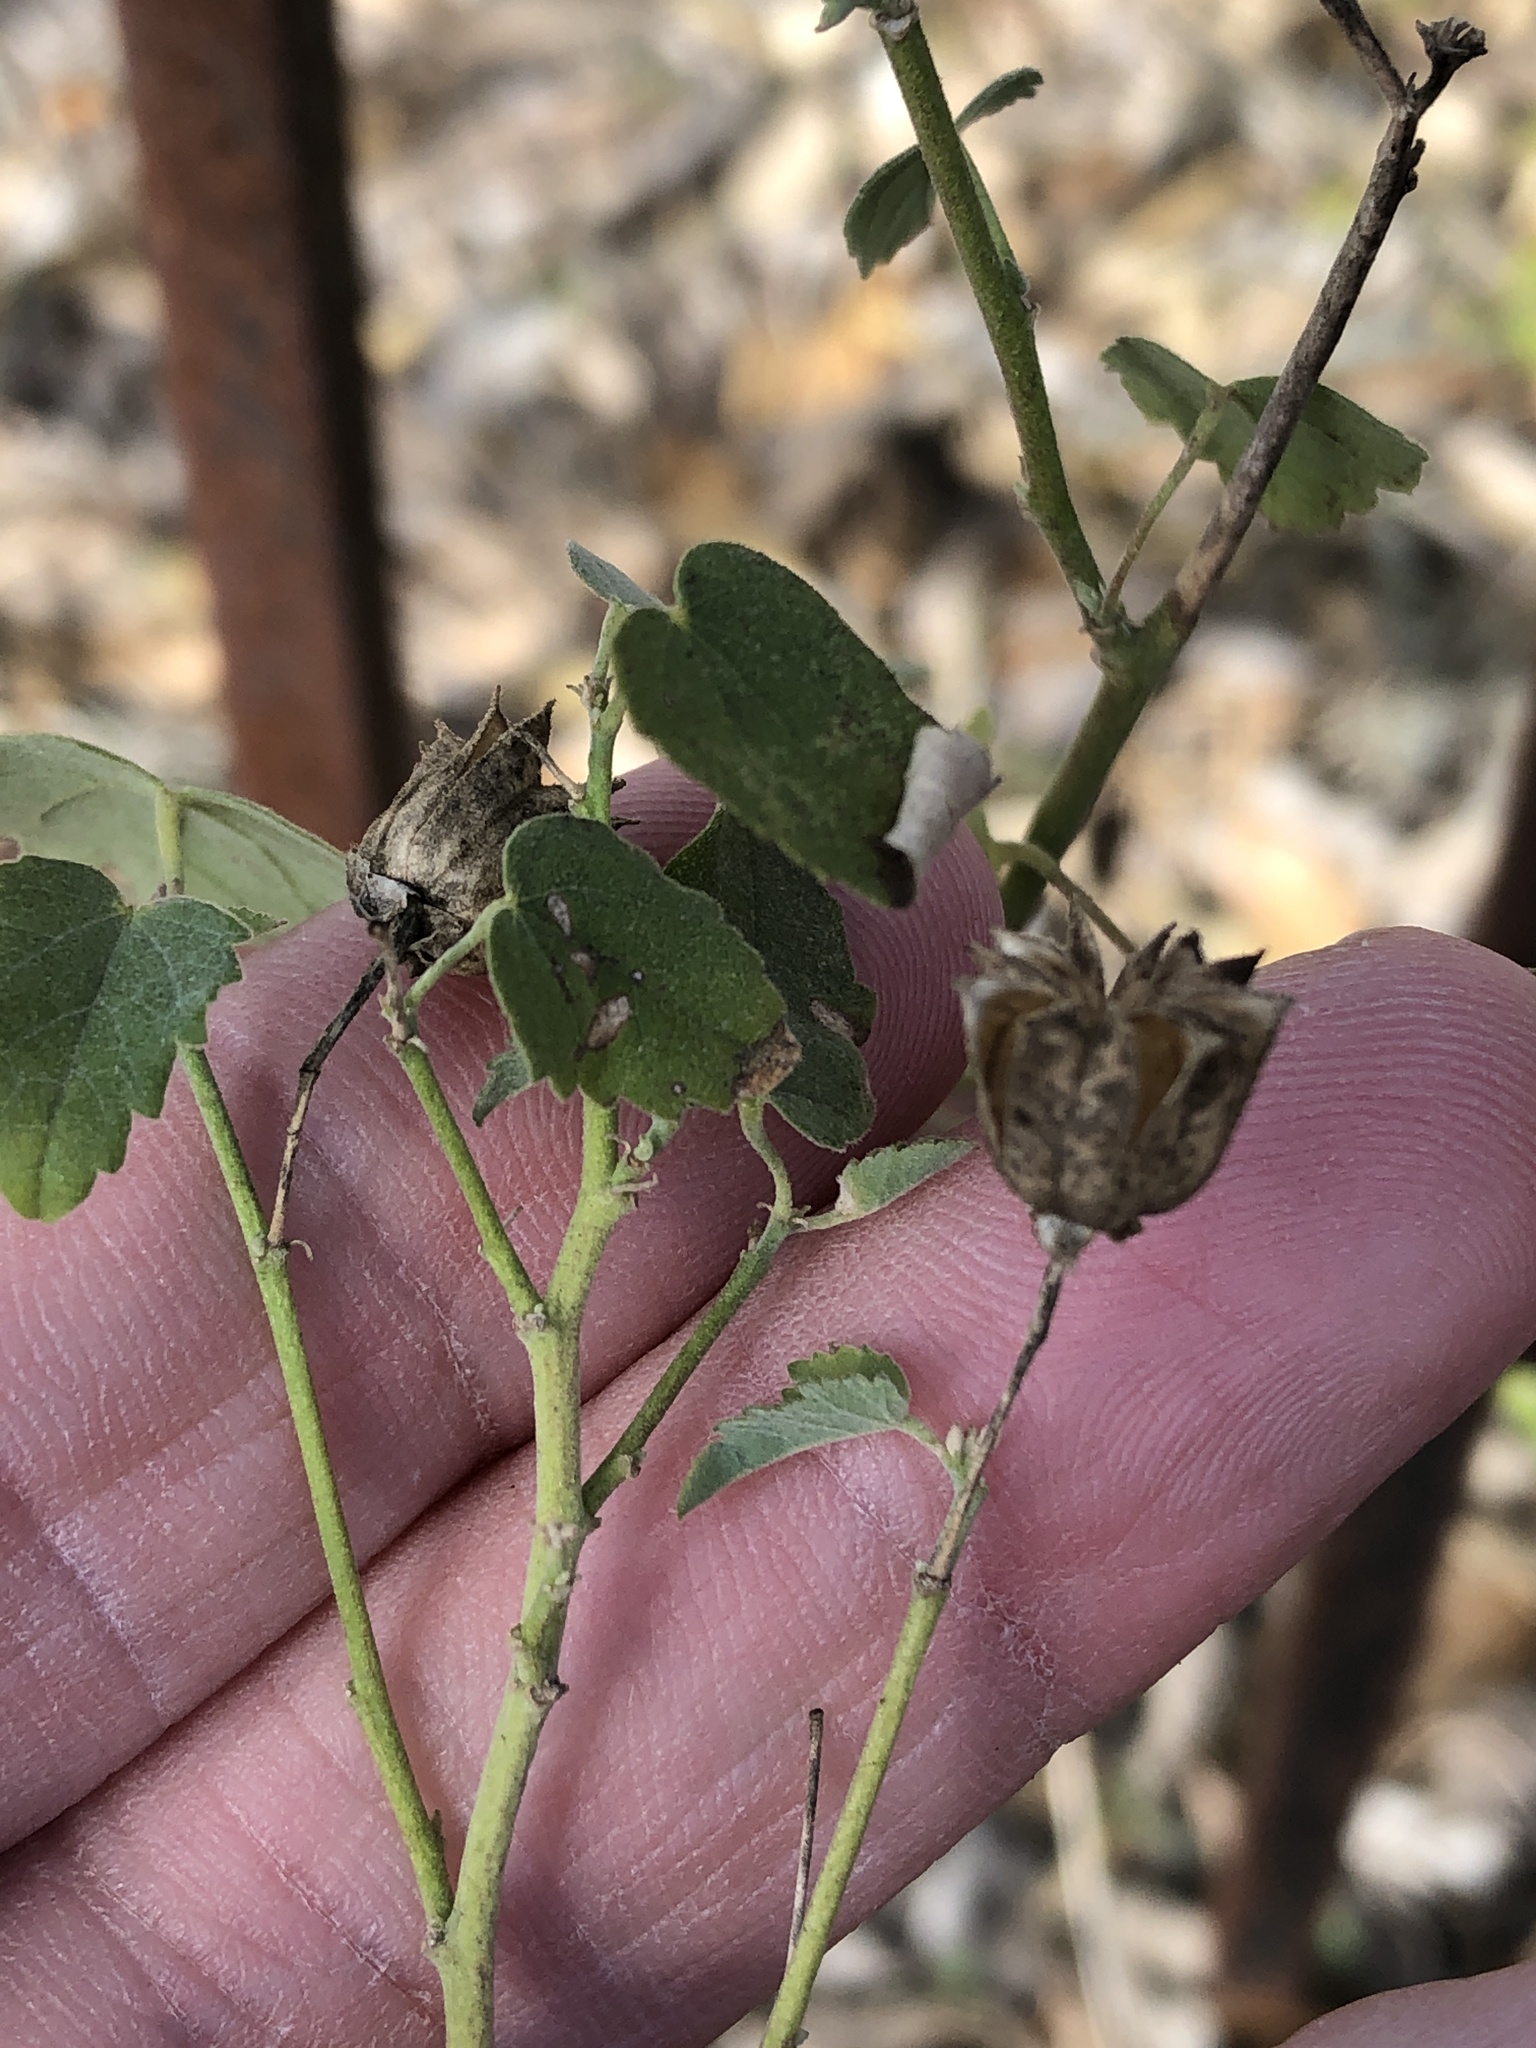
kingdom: Plantae
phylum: Tracheophyta
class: Magnoliopsida
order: Malvales
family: Malvaceae
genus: Abutilon
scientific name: Abutilon fruticosum
